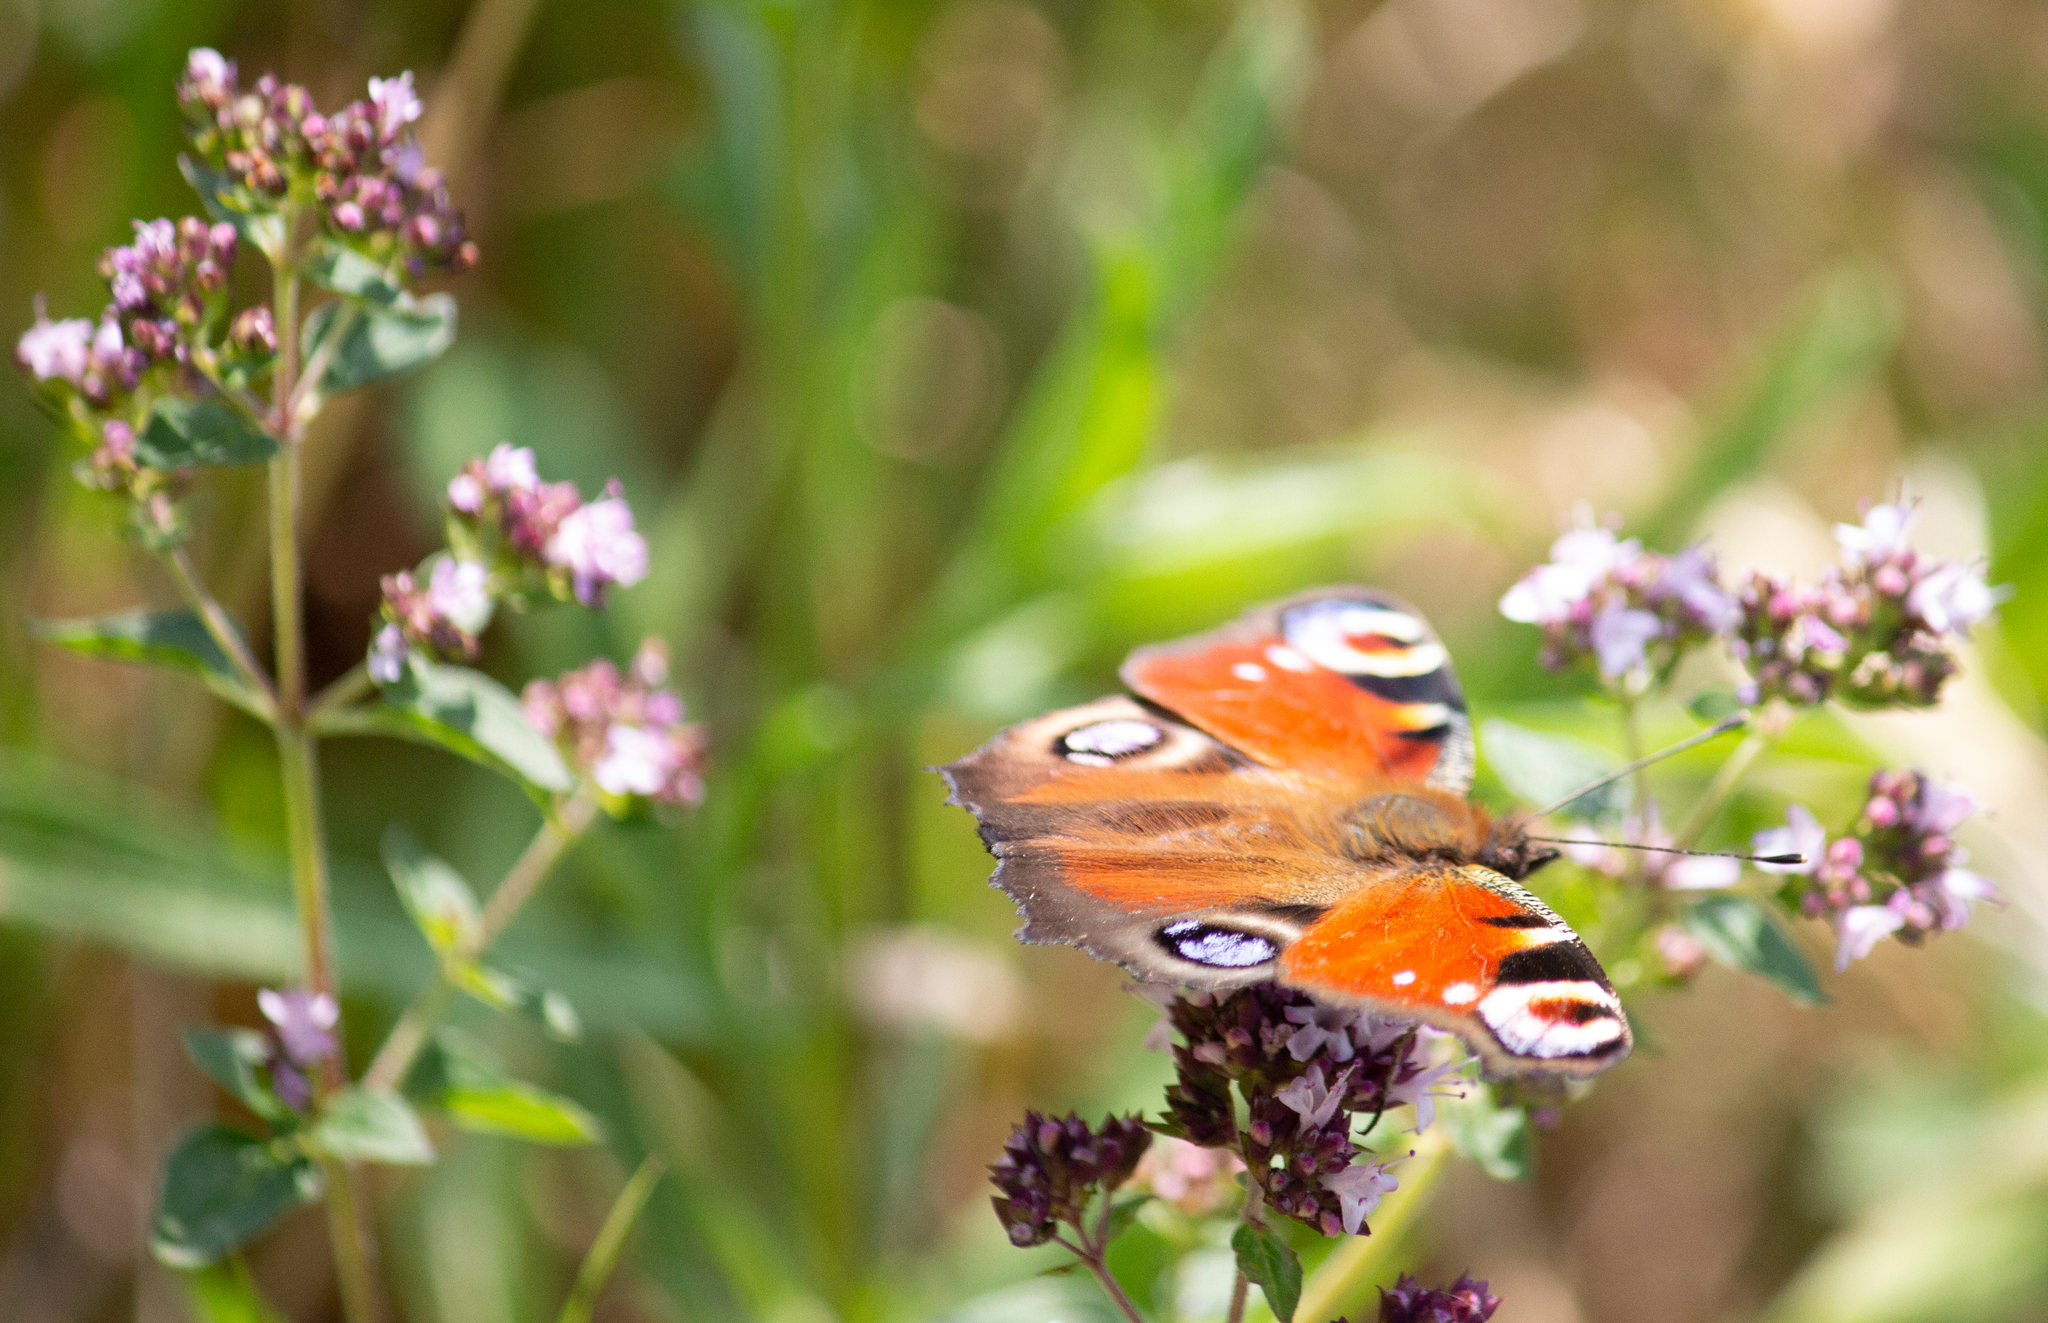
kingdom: Animalia
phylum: Arthropoda
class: Insecta
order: Lepidoptera
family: Nymphalidae
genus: Aglais
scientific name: Aglais io
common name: Peacock
